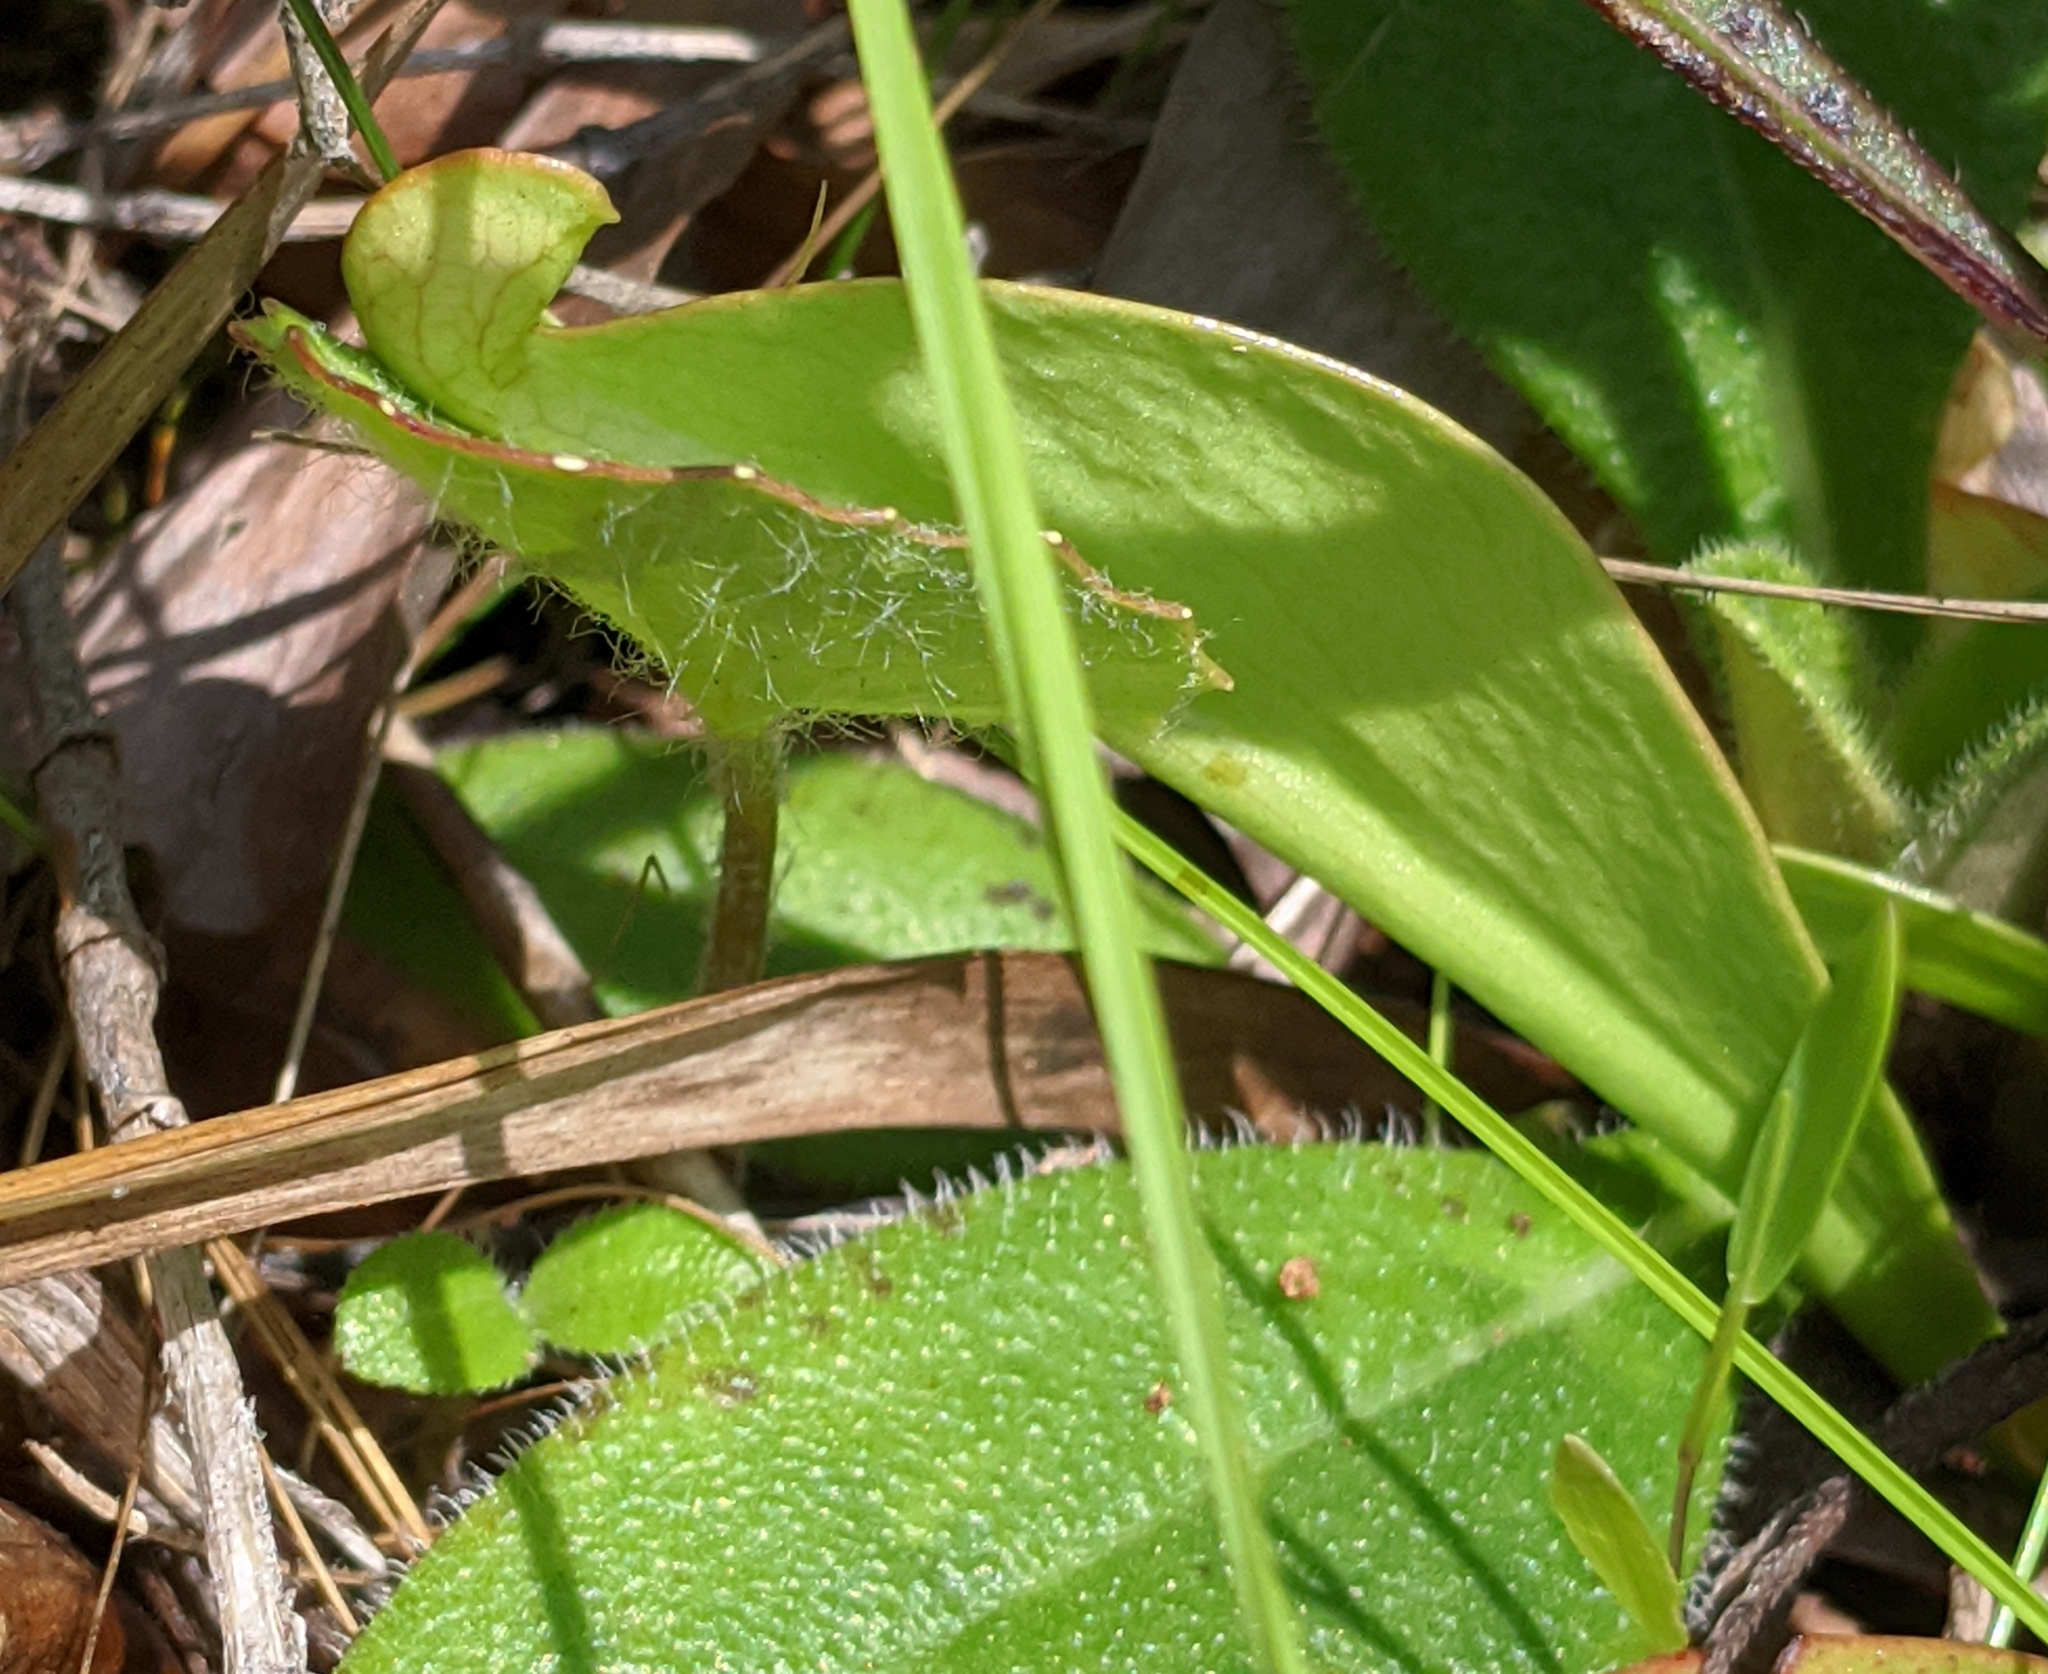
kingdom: Plantae
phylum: Tracheophyta
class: Magnoliopsida
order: Ericales
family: Sarraceniaceae
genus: Sarracenia
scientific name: Sarracenia psittacina
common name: Parrot pitcherplant
